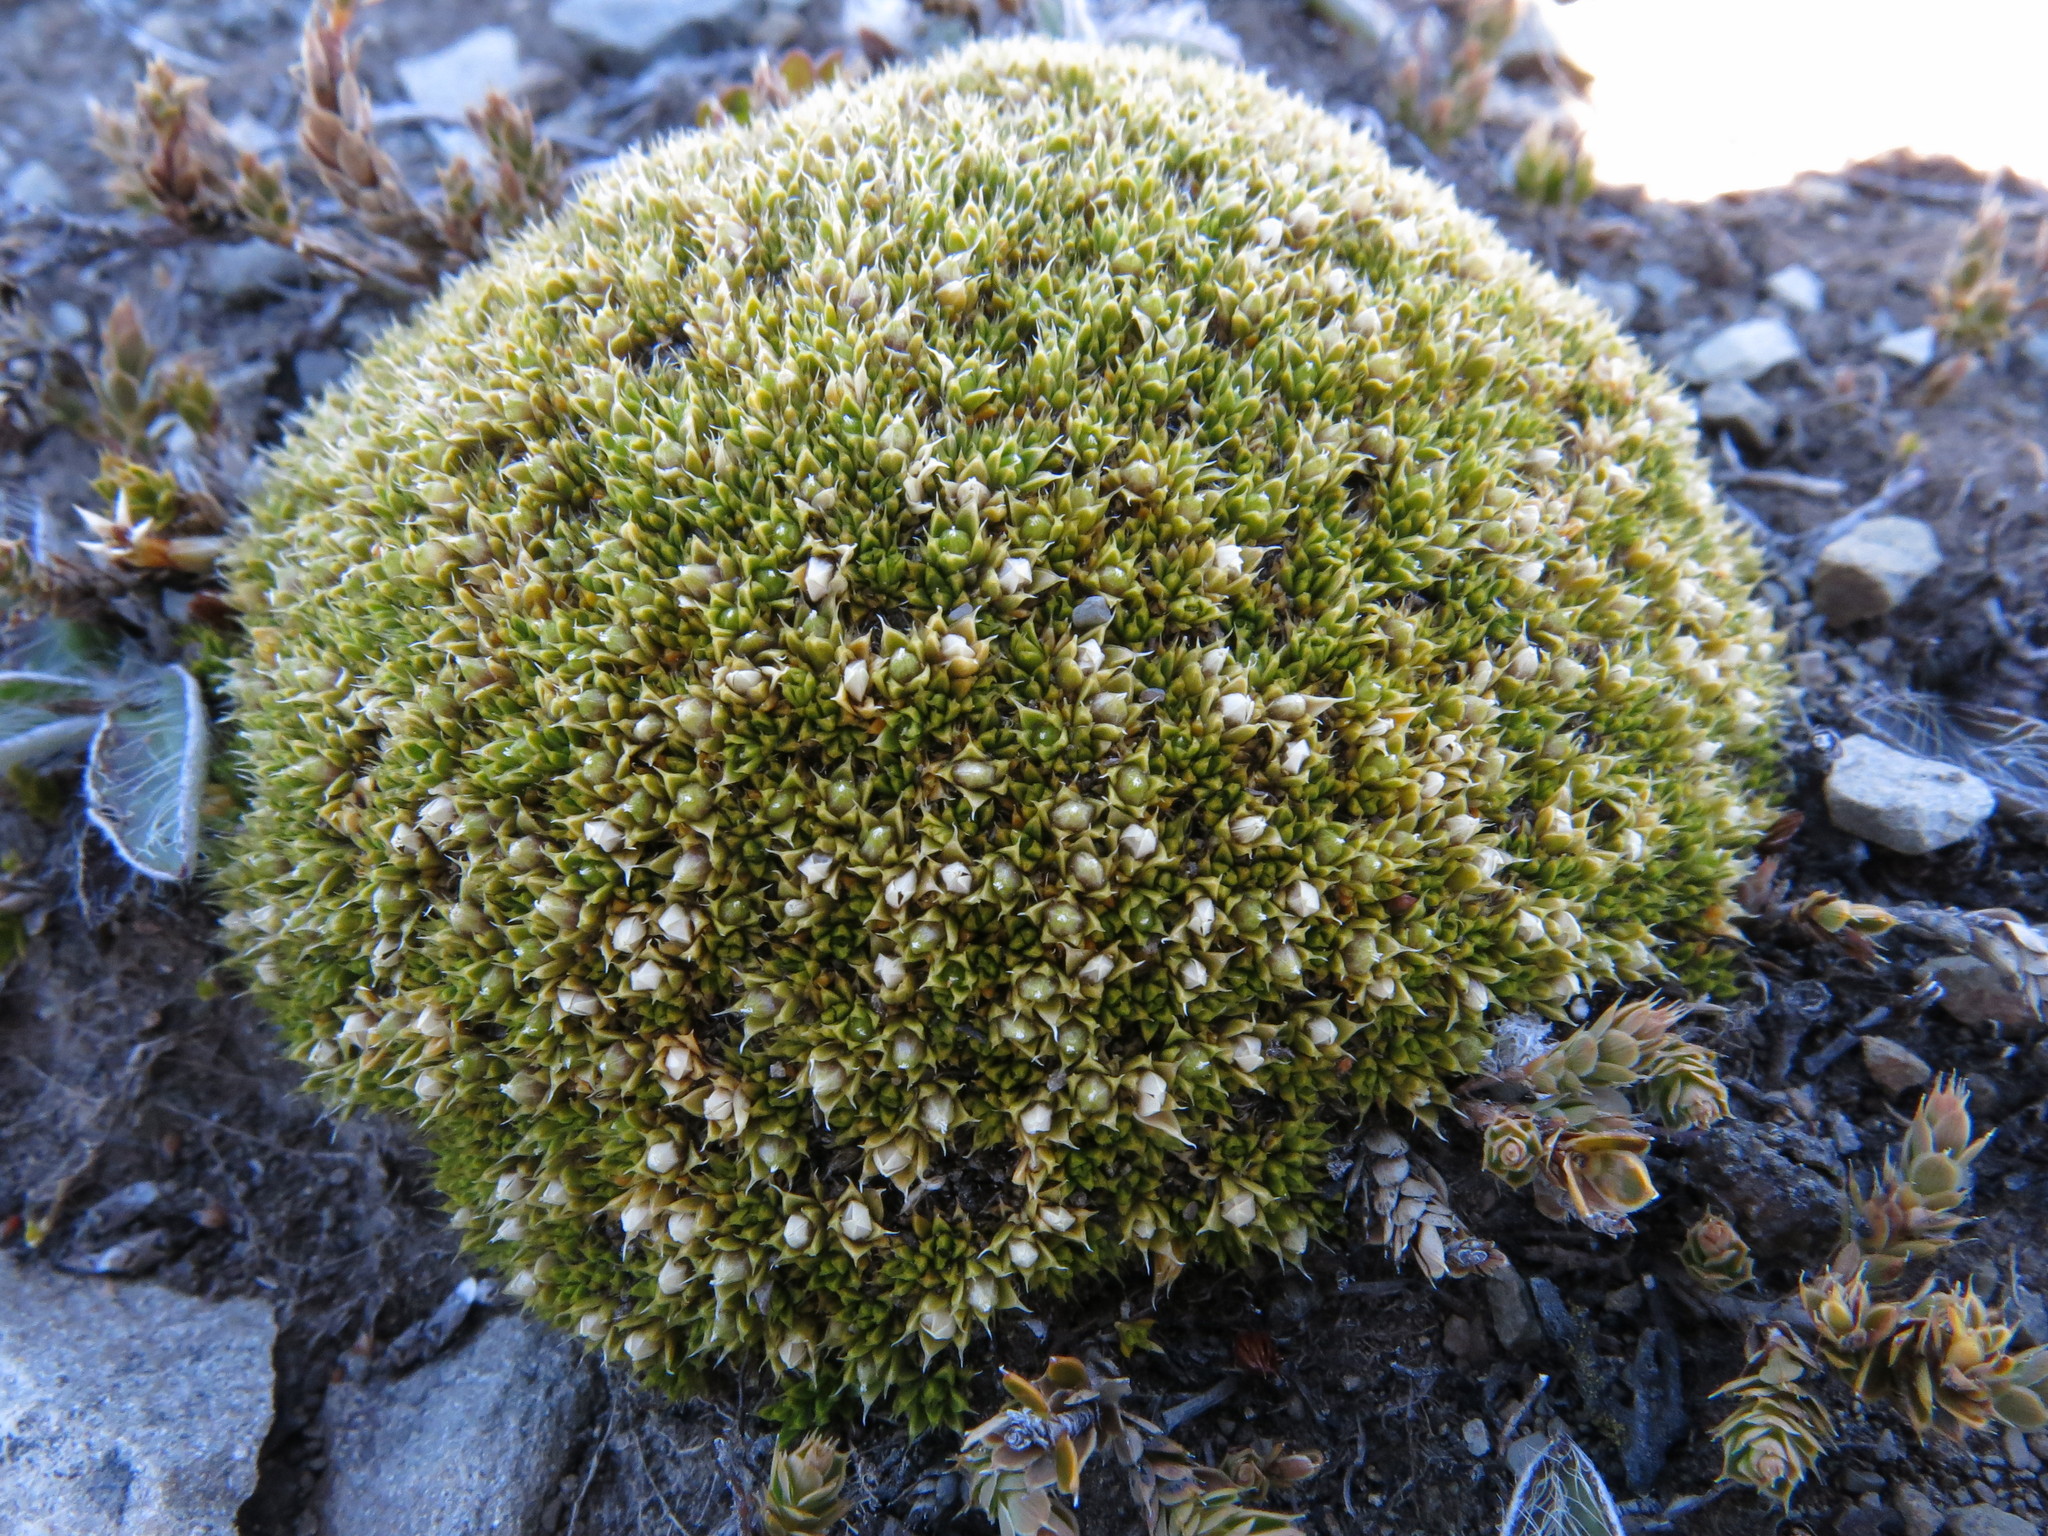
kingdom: Plantae
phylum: Tracheophyta
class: Magnoliopsida
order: Caryophyllales
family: Caryophyllaceae
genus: Colobanthus
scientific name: Colobanthus brevisepalus
